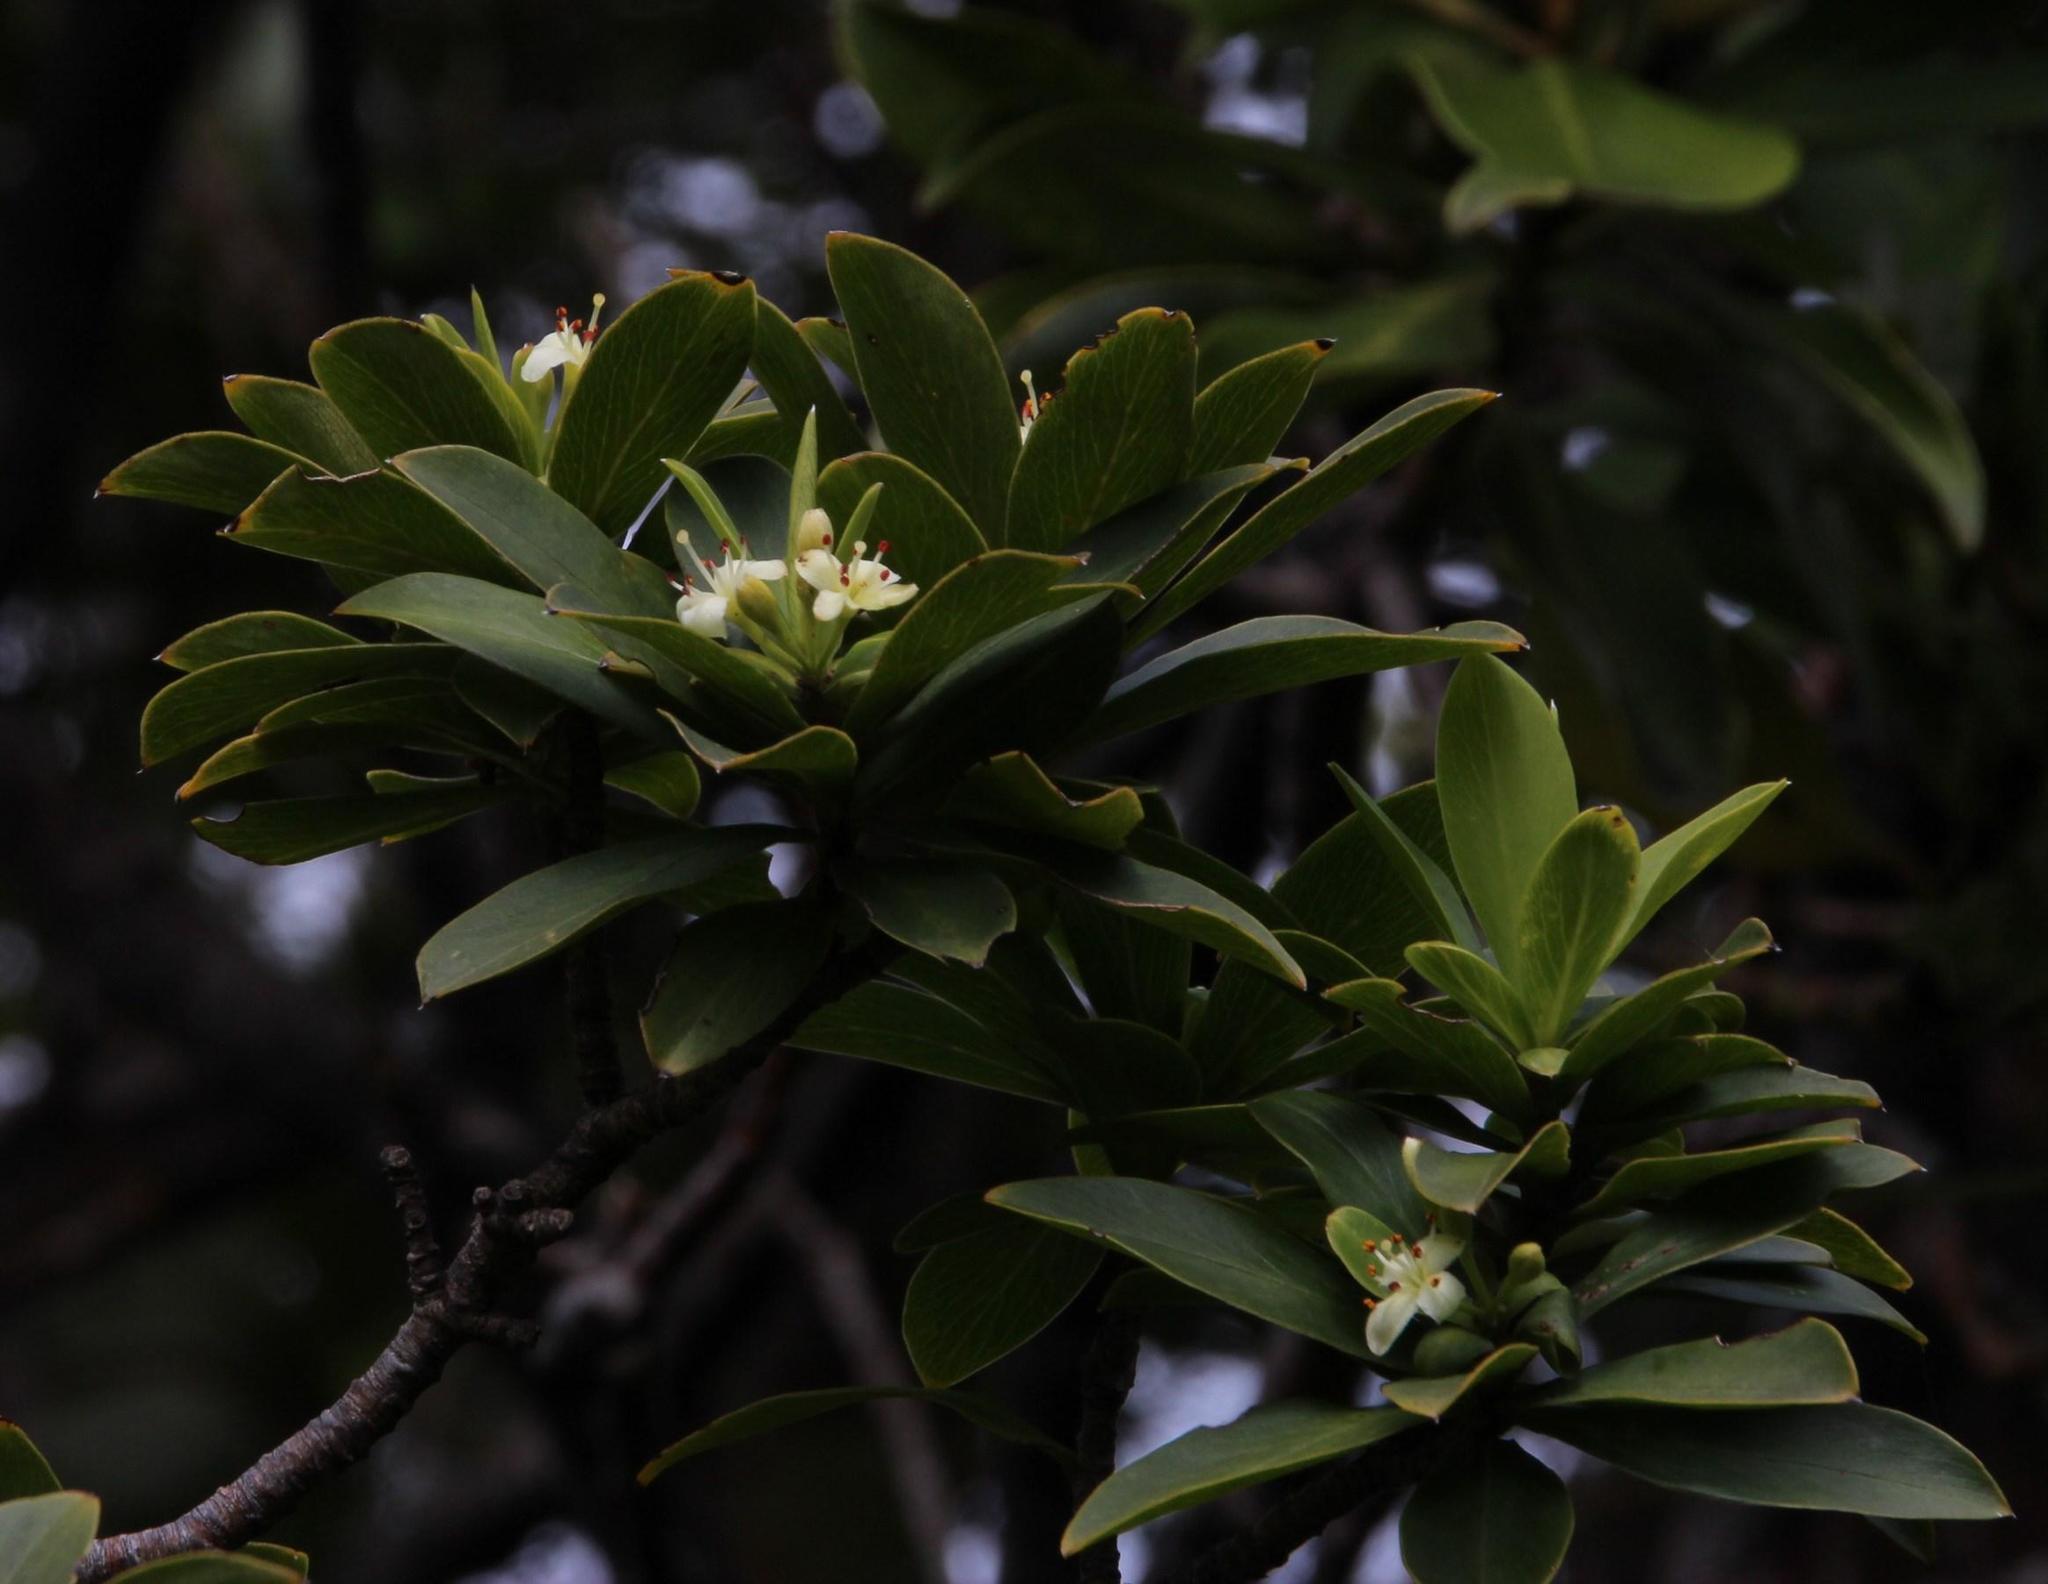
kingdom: Plantae
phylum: Tracheophyta
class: Magnoliopsida
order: Malvales
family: Thymelaeaceae
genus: Ovidia
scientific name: Ovidia andina
